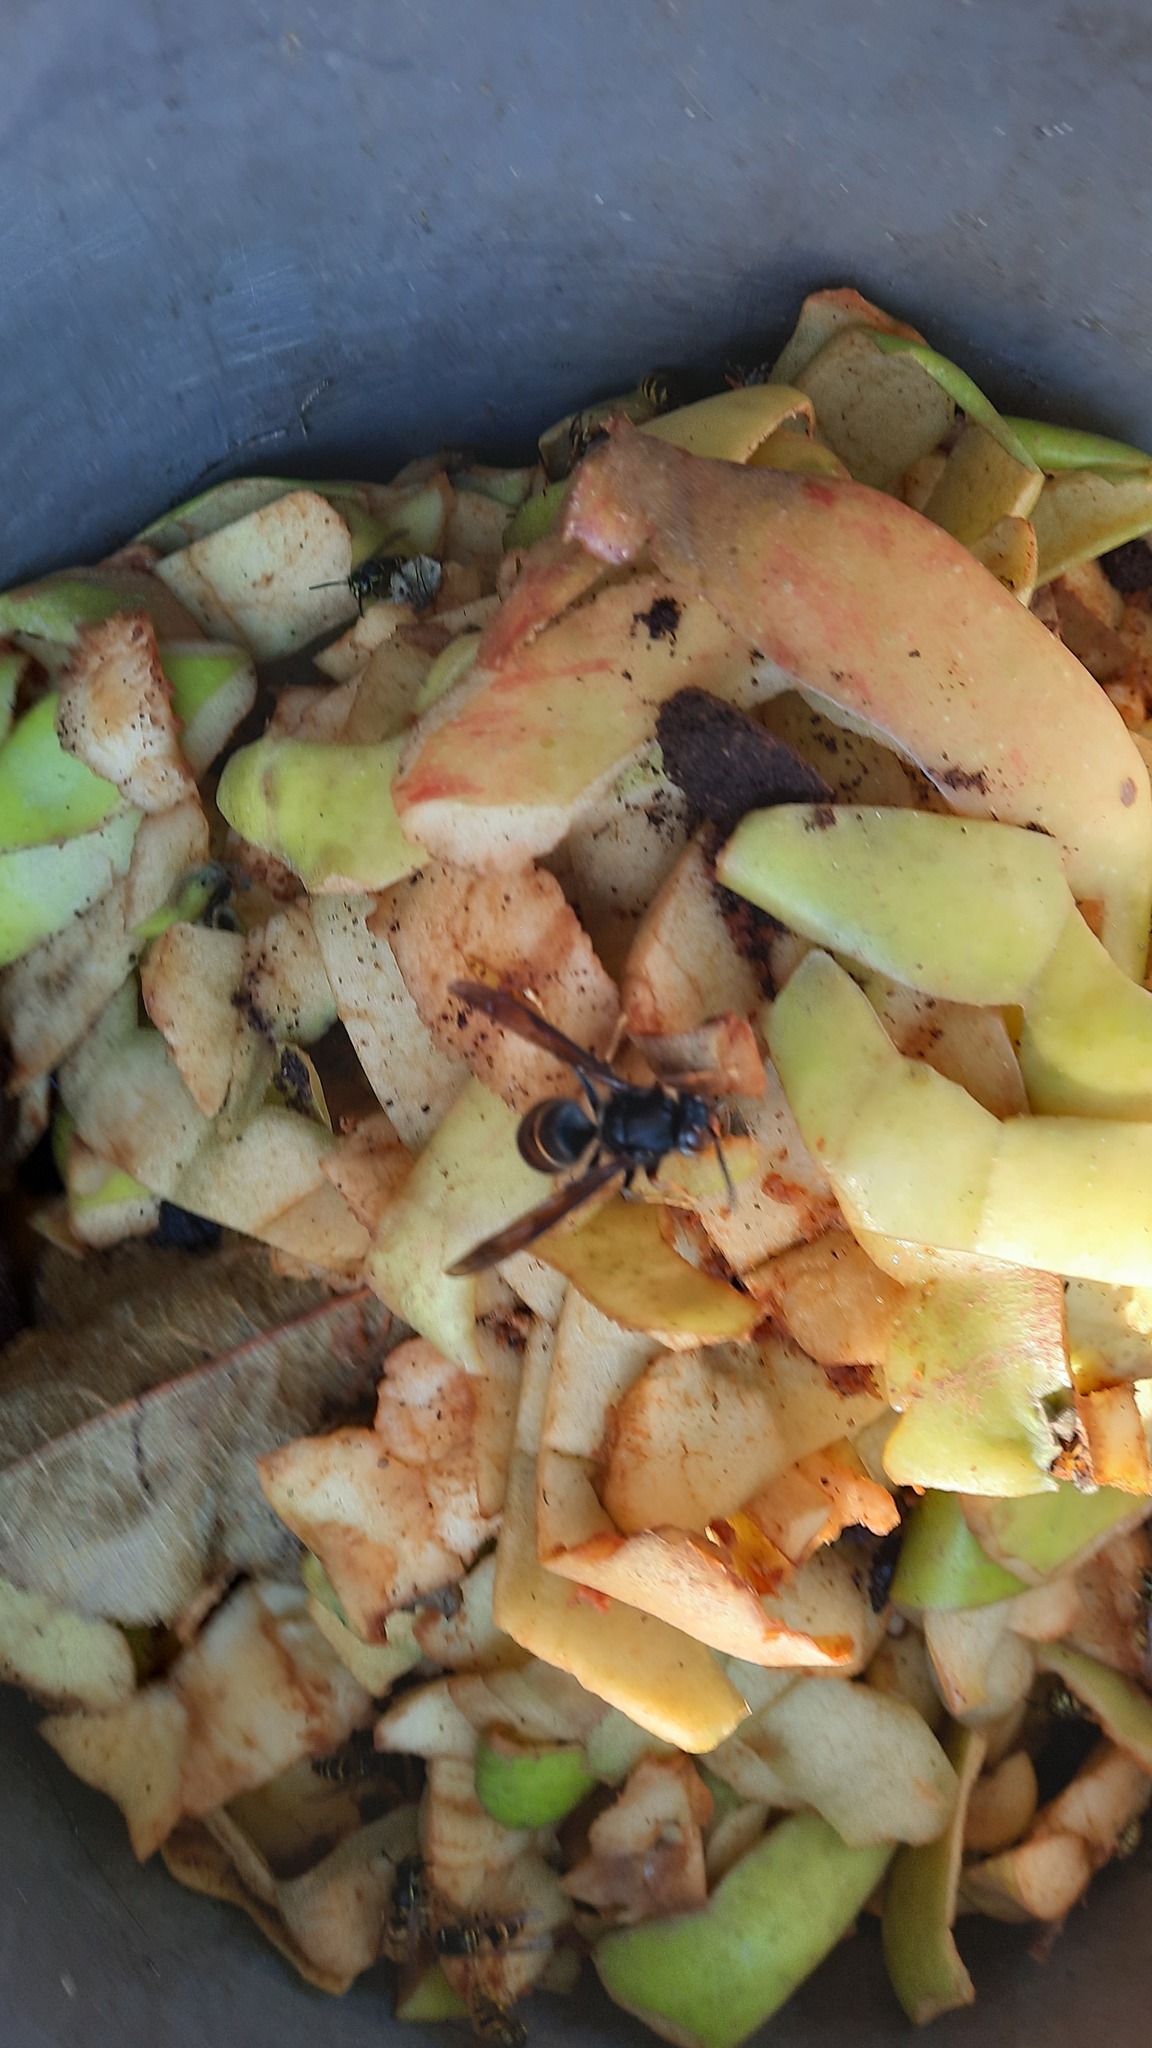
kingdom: Animalia
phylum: Arthropoda
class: Insecta
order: Hymenoptera
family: Vespidae
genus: Vespa
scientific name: Vespa velutina
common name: Asian hornet
